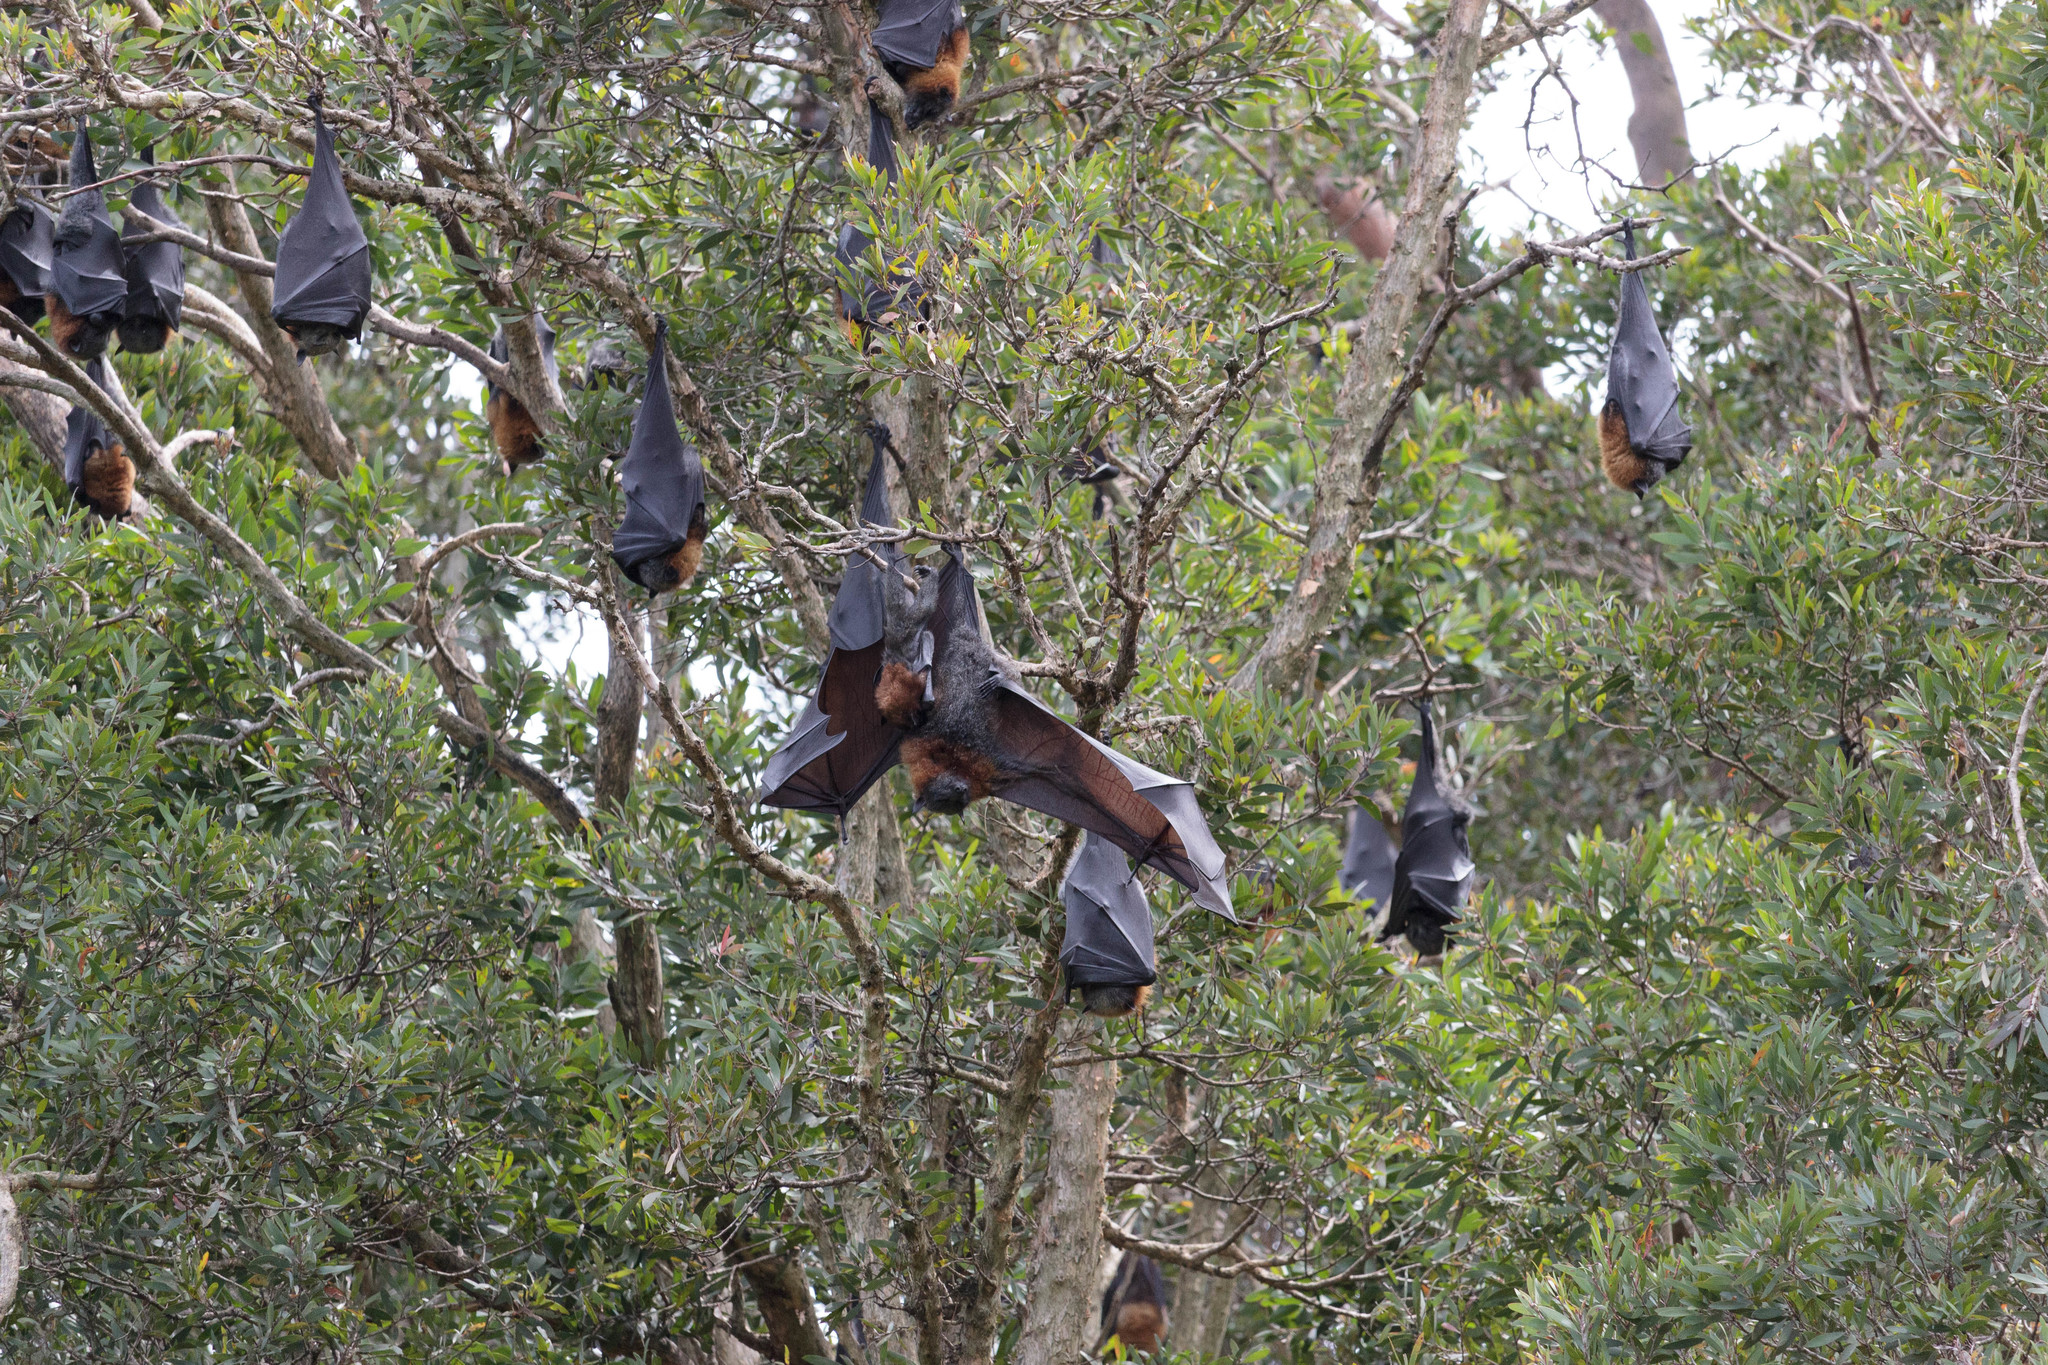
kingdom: Animalia
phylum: Chordata
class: Mammalia
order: Chiroptera
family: Pteropodidae
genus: Pteropus
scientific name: Pteropus poliocephalus
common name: Gray-headed flying fox
